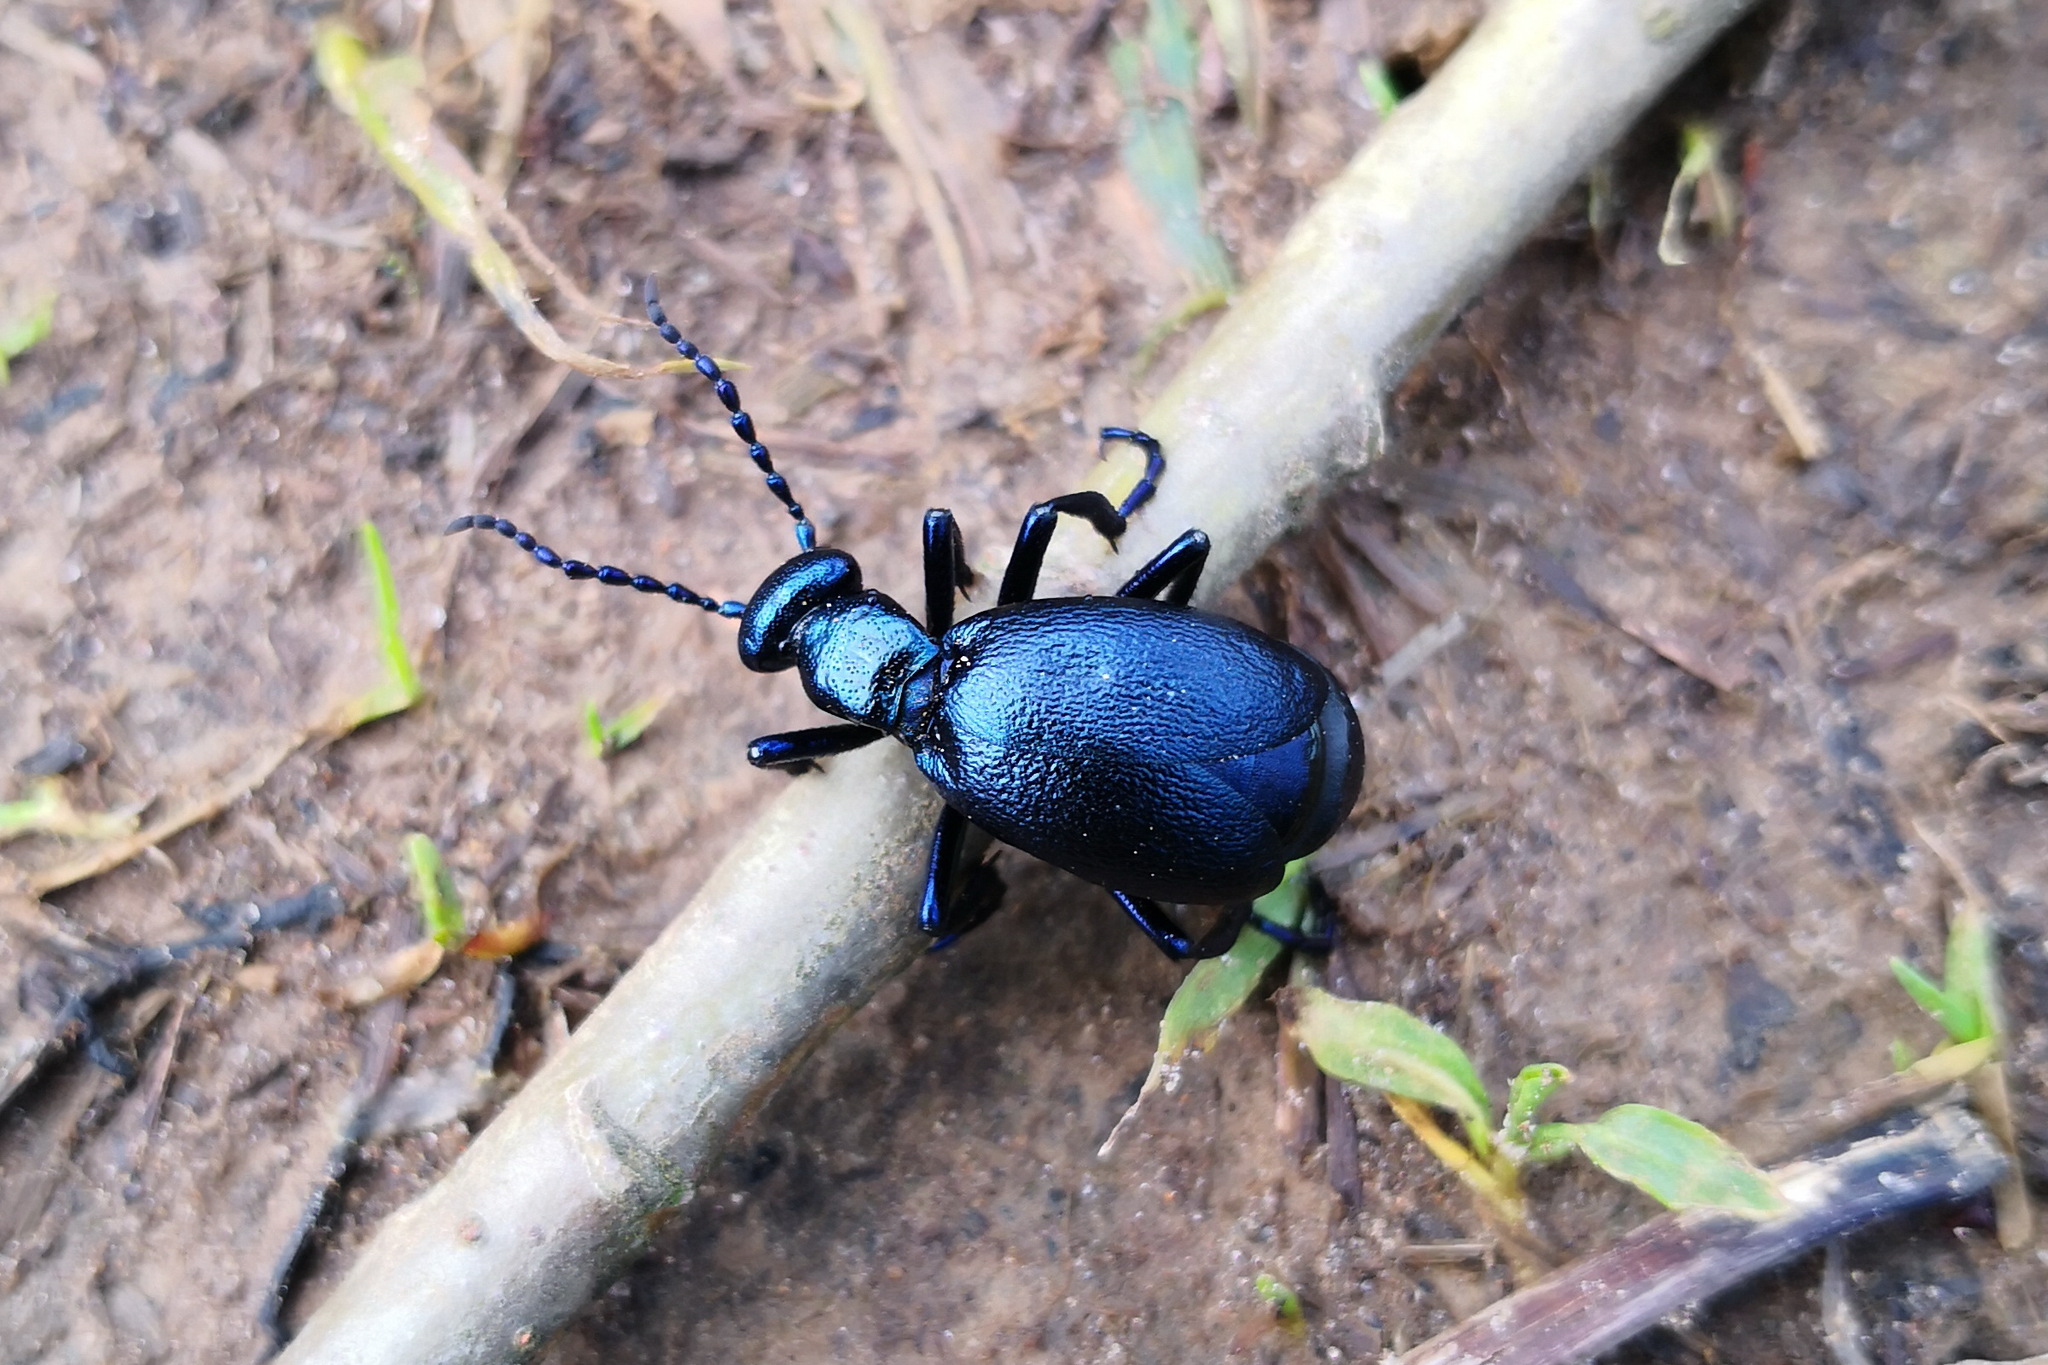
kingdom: Animalia
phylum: Arthropoda
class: Insecta
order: Coleoptera
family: Meloidae
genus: Meloe
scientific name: Meloe violaceus
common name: Violet oil-beetle
